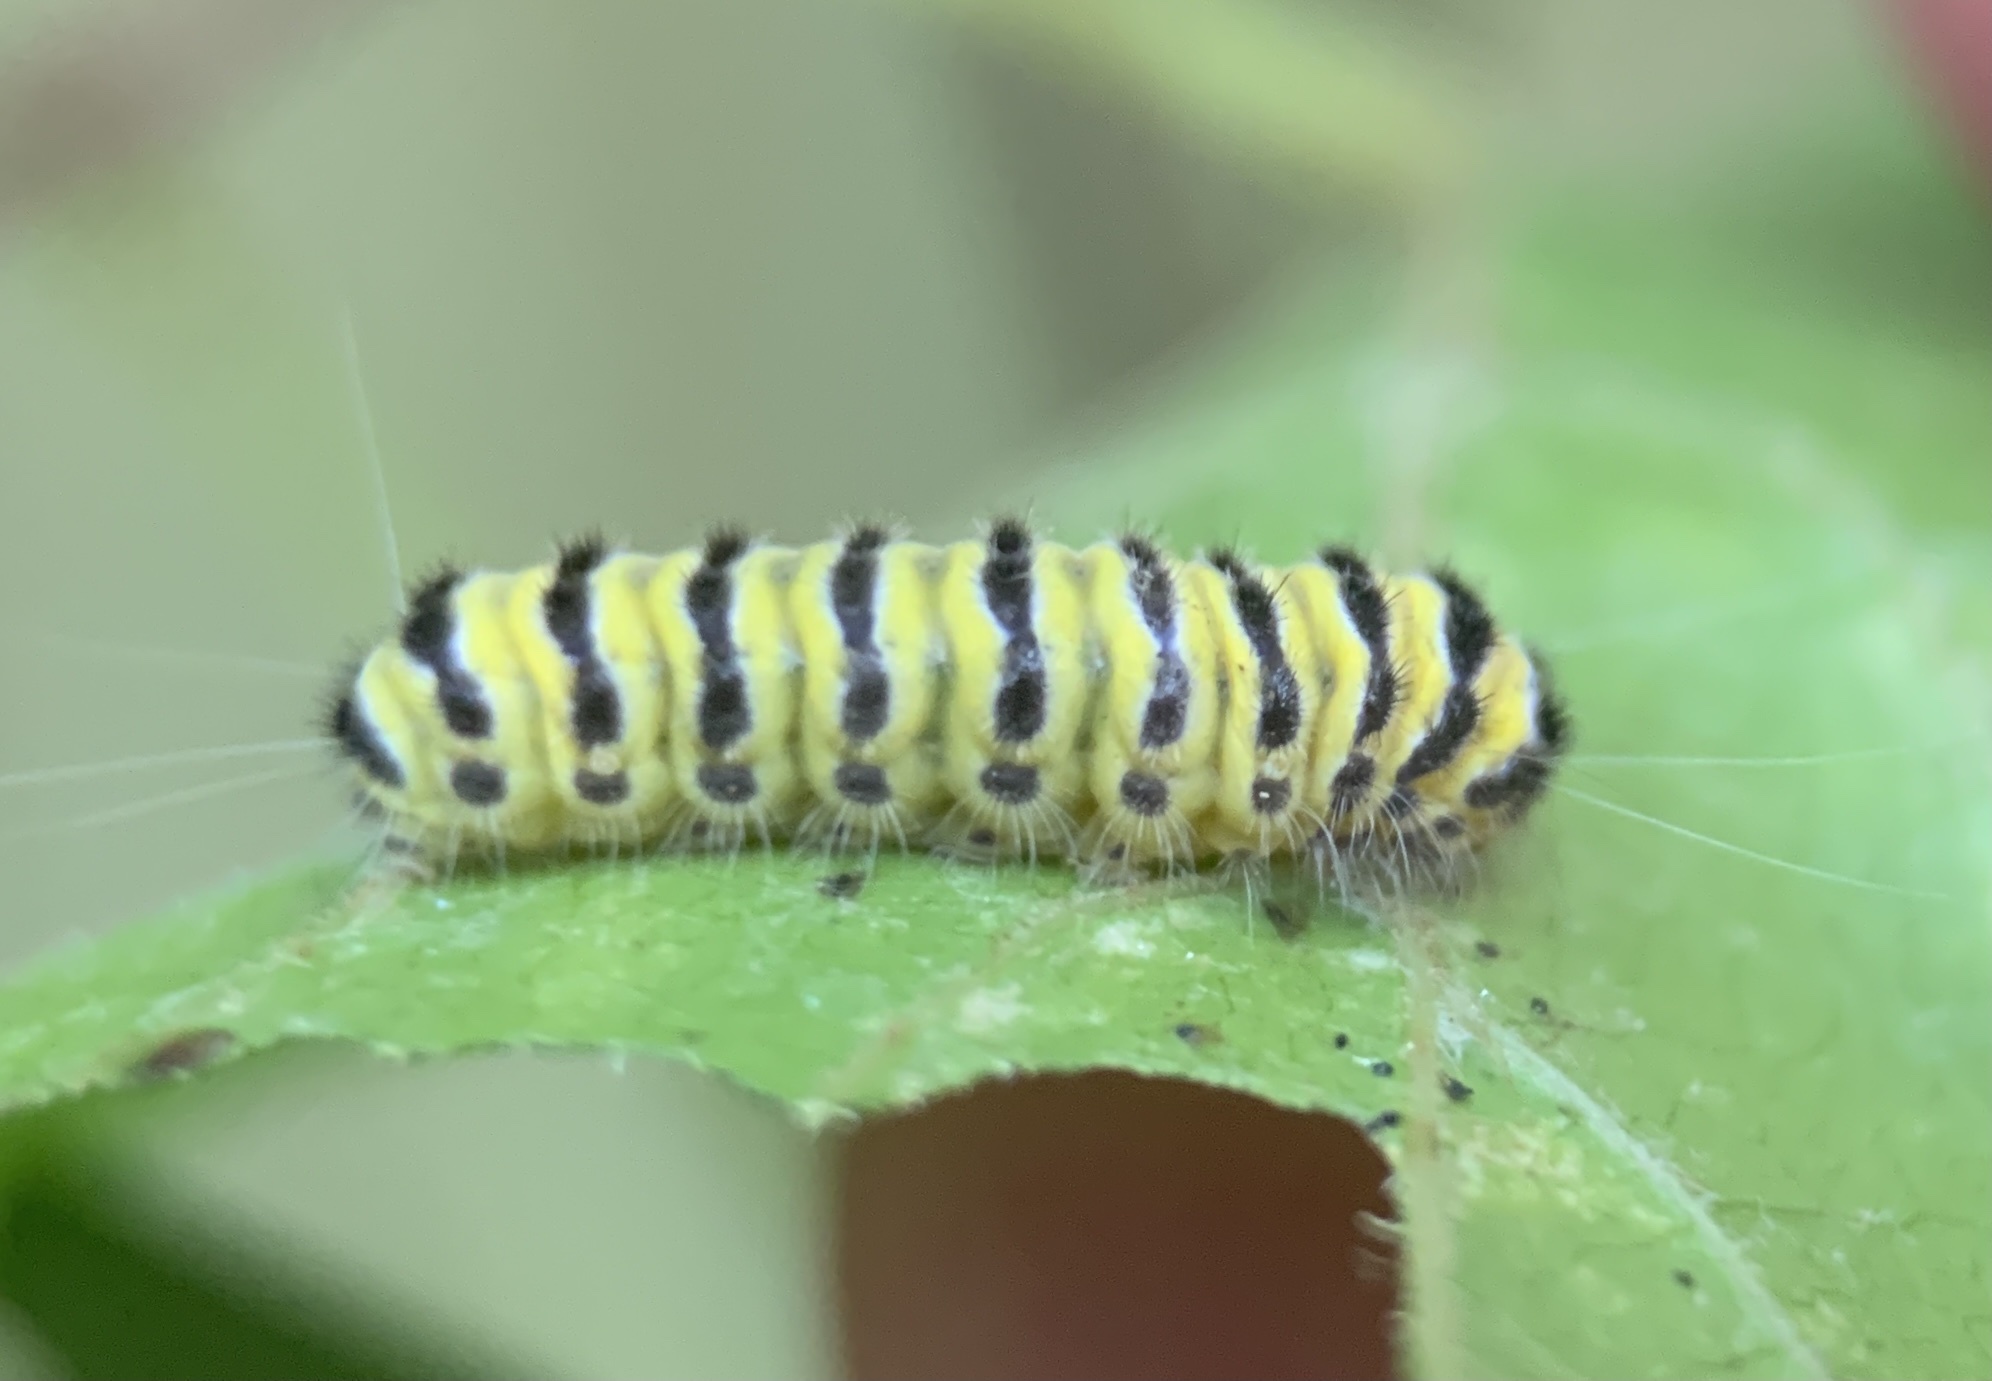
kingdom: Animalia
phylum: Arthropoda
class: Insecta
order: Lepidoptera
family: Zygaenidae
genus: Harrisina
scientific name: Harrisina americana
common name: Grapeleaf skeletonizer moth
